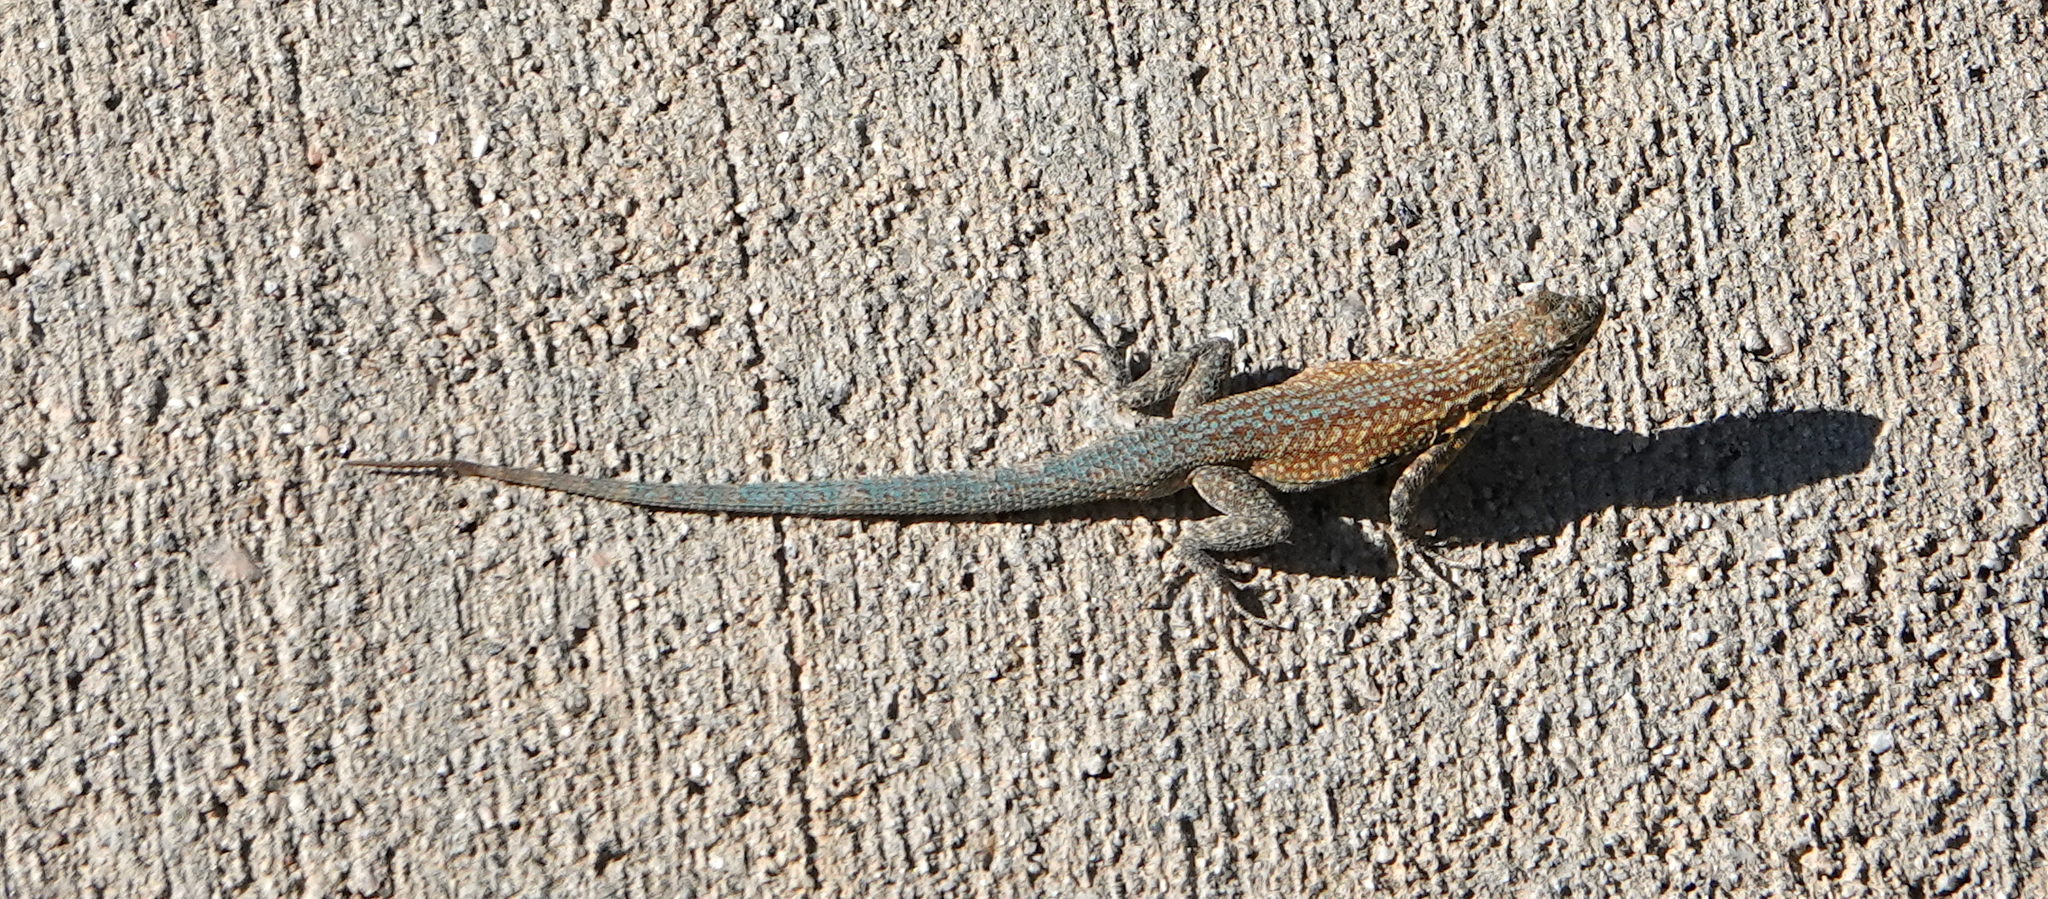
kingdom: Animalia
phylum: Chordata
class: Squamata
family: Phrynosomatidae
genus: Uta
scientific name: Uta stansburiana
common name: Side-blotched lizard
